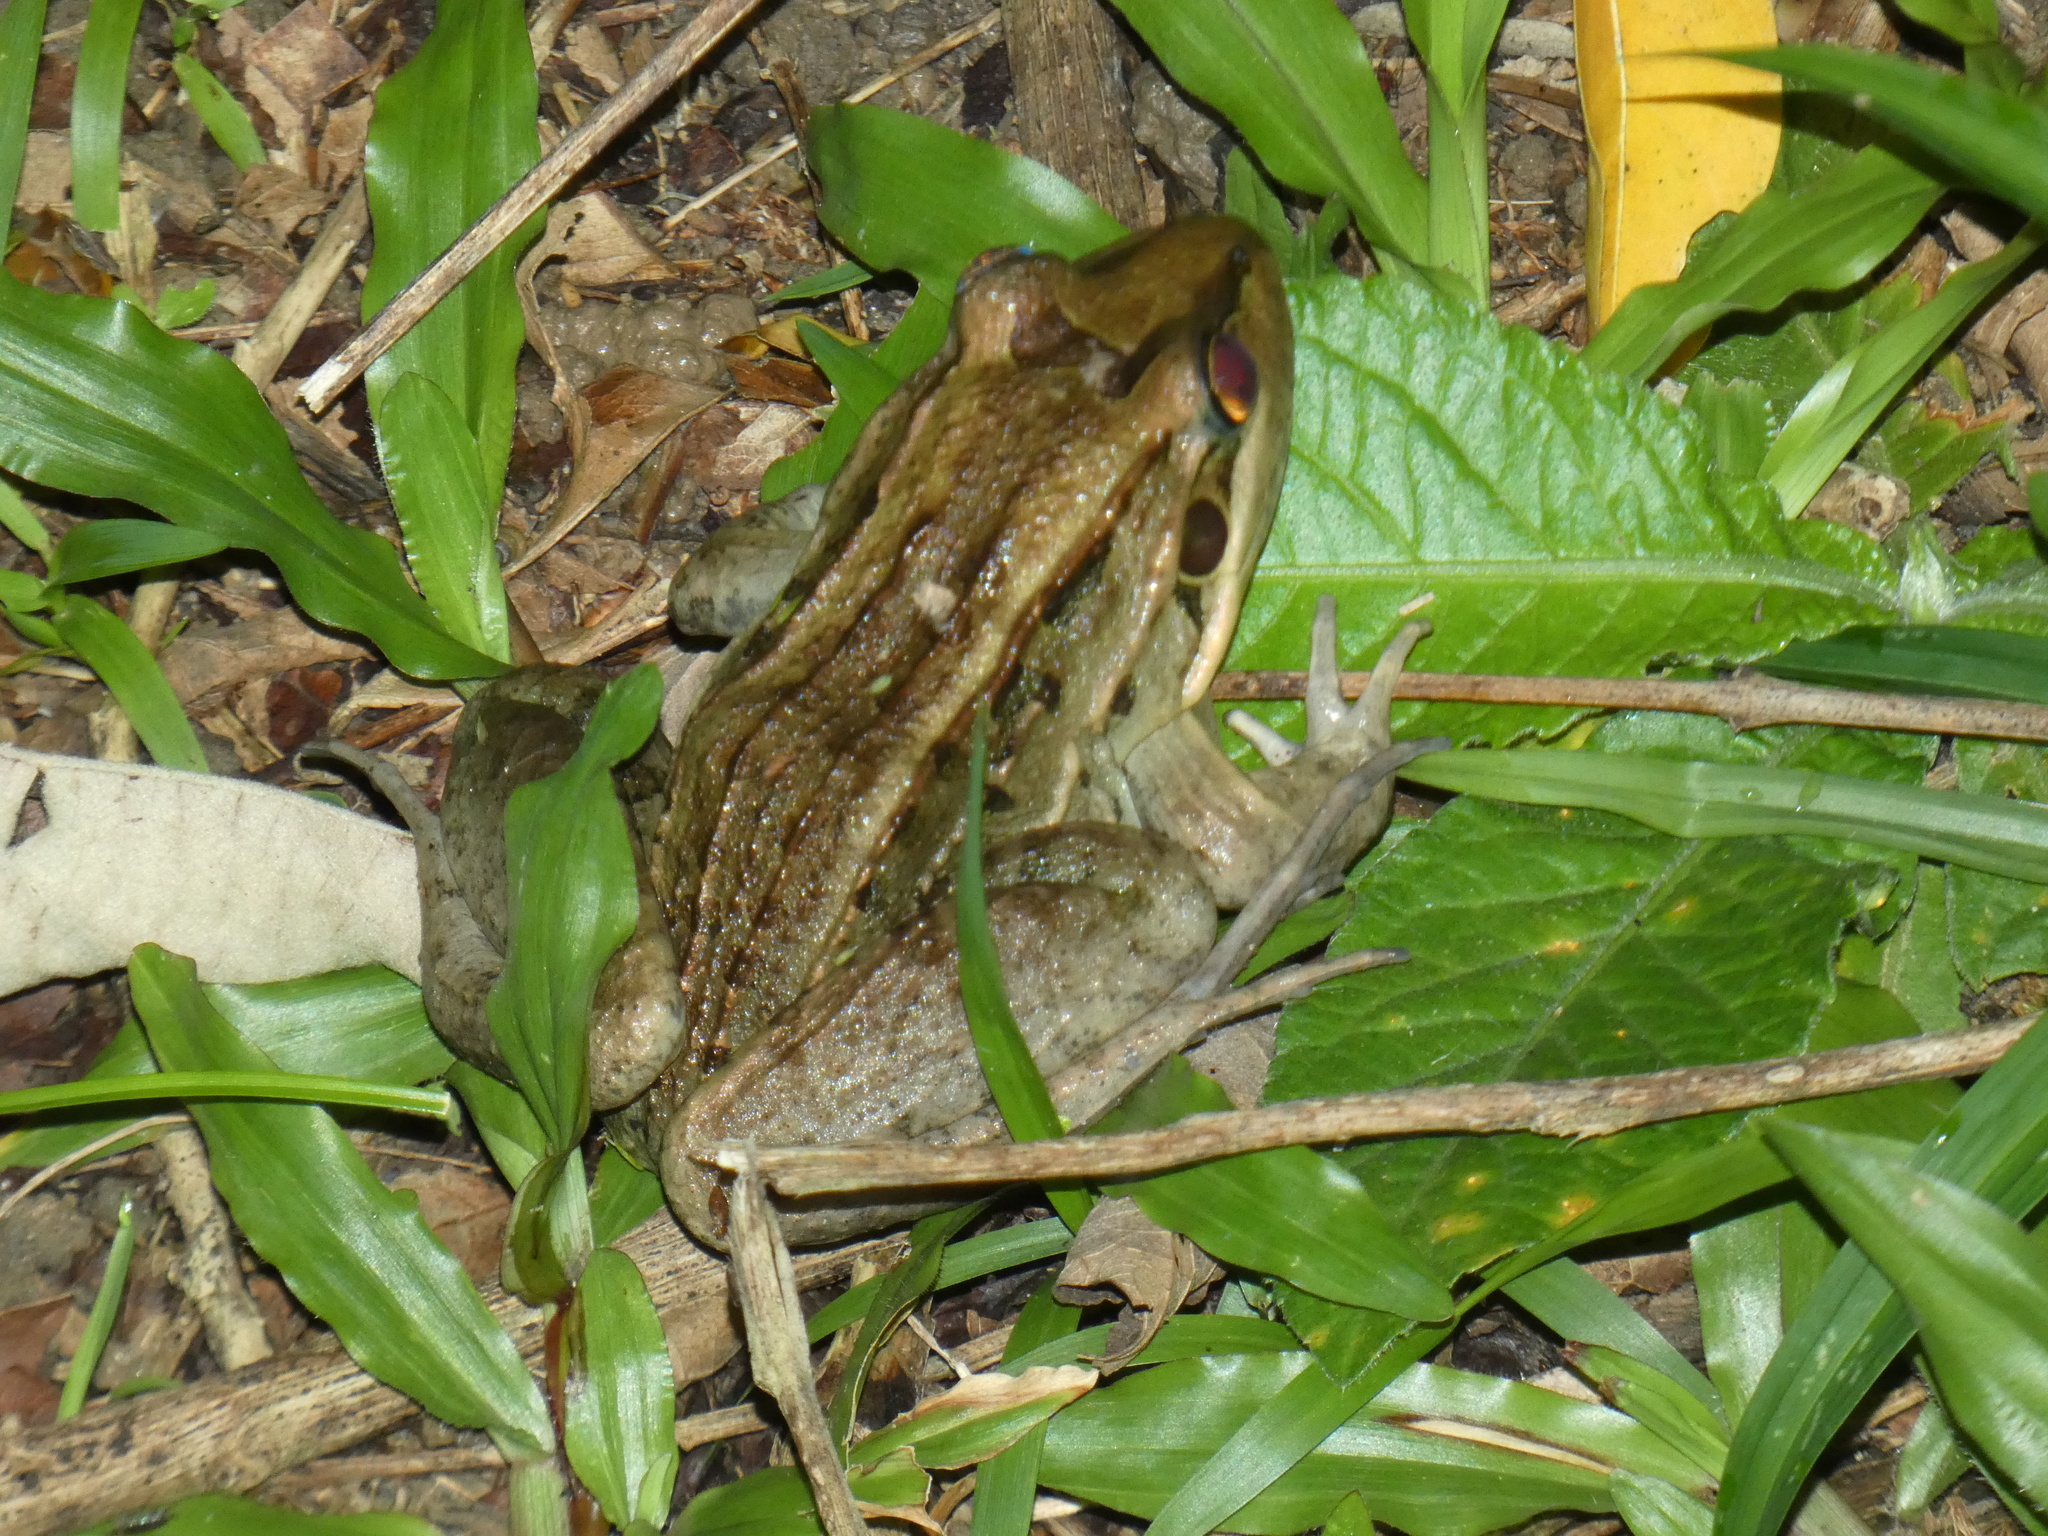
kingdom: Animalia
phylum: Chordata
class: Amphibia
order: Anura
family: Leptodactylidae
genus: Leptodactylus
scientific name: Leptodactylus latrans
